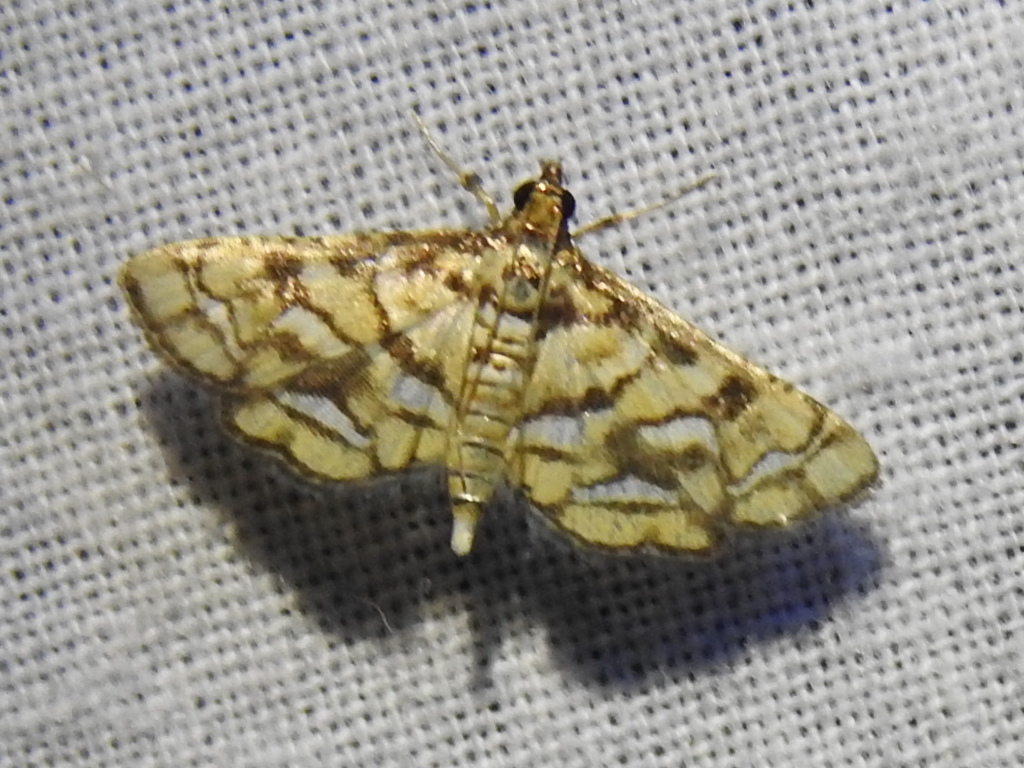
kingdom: Animalia
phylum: Arthropoda
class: Insecta
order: Lepidoptera
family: Crambidae
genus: Hileithia
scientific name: Hileithia magualis
